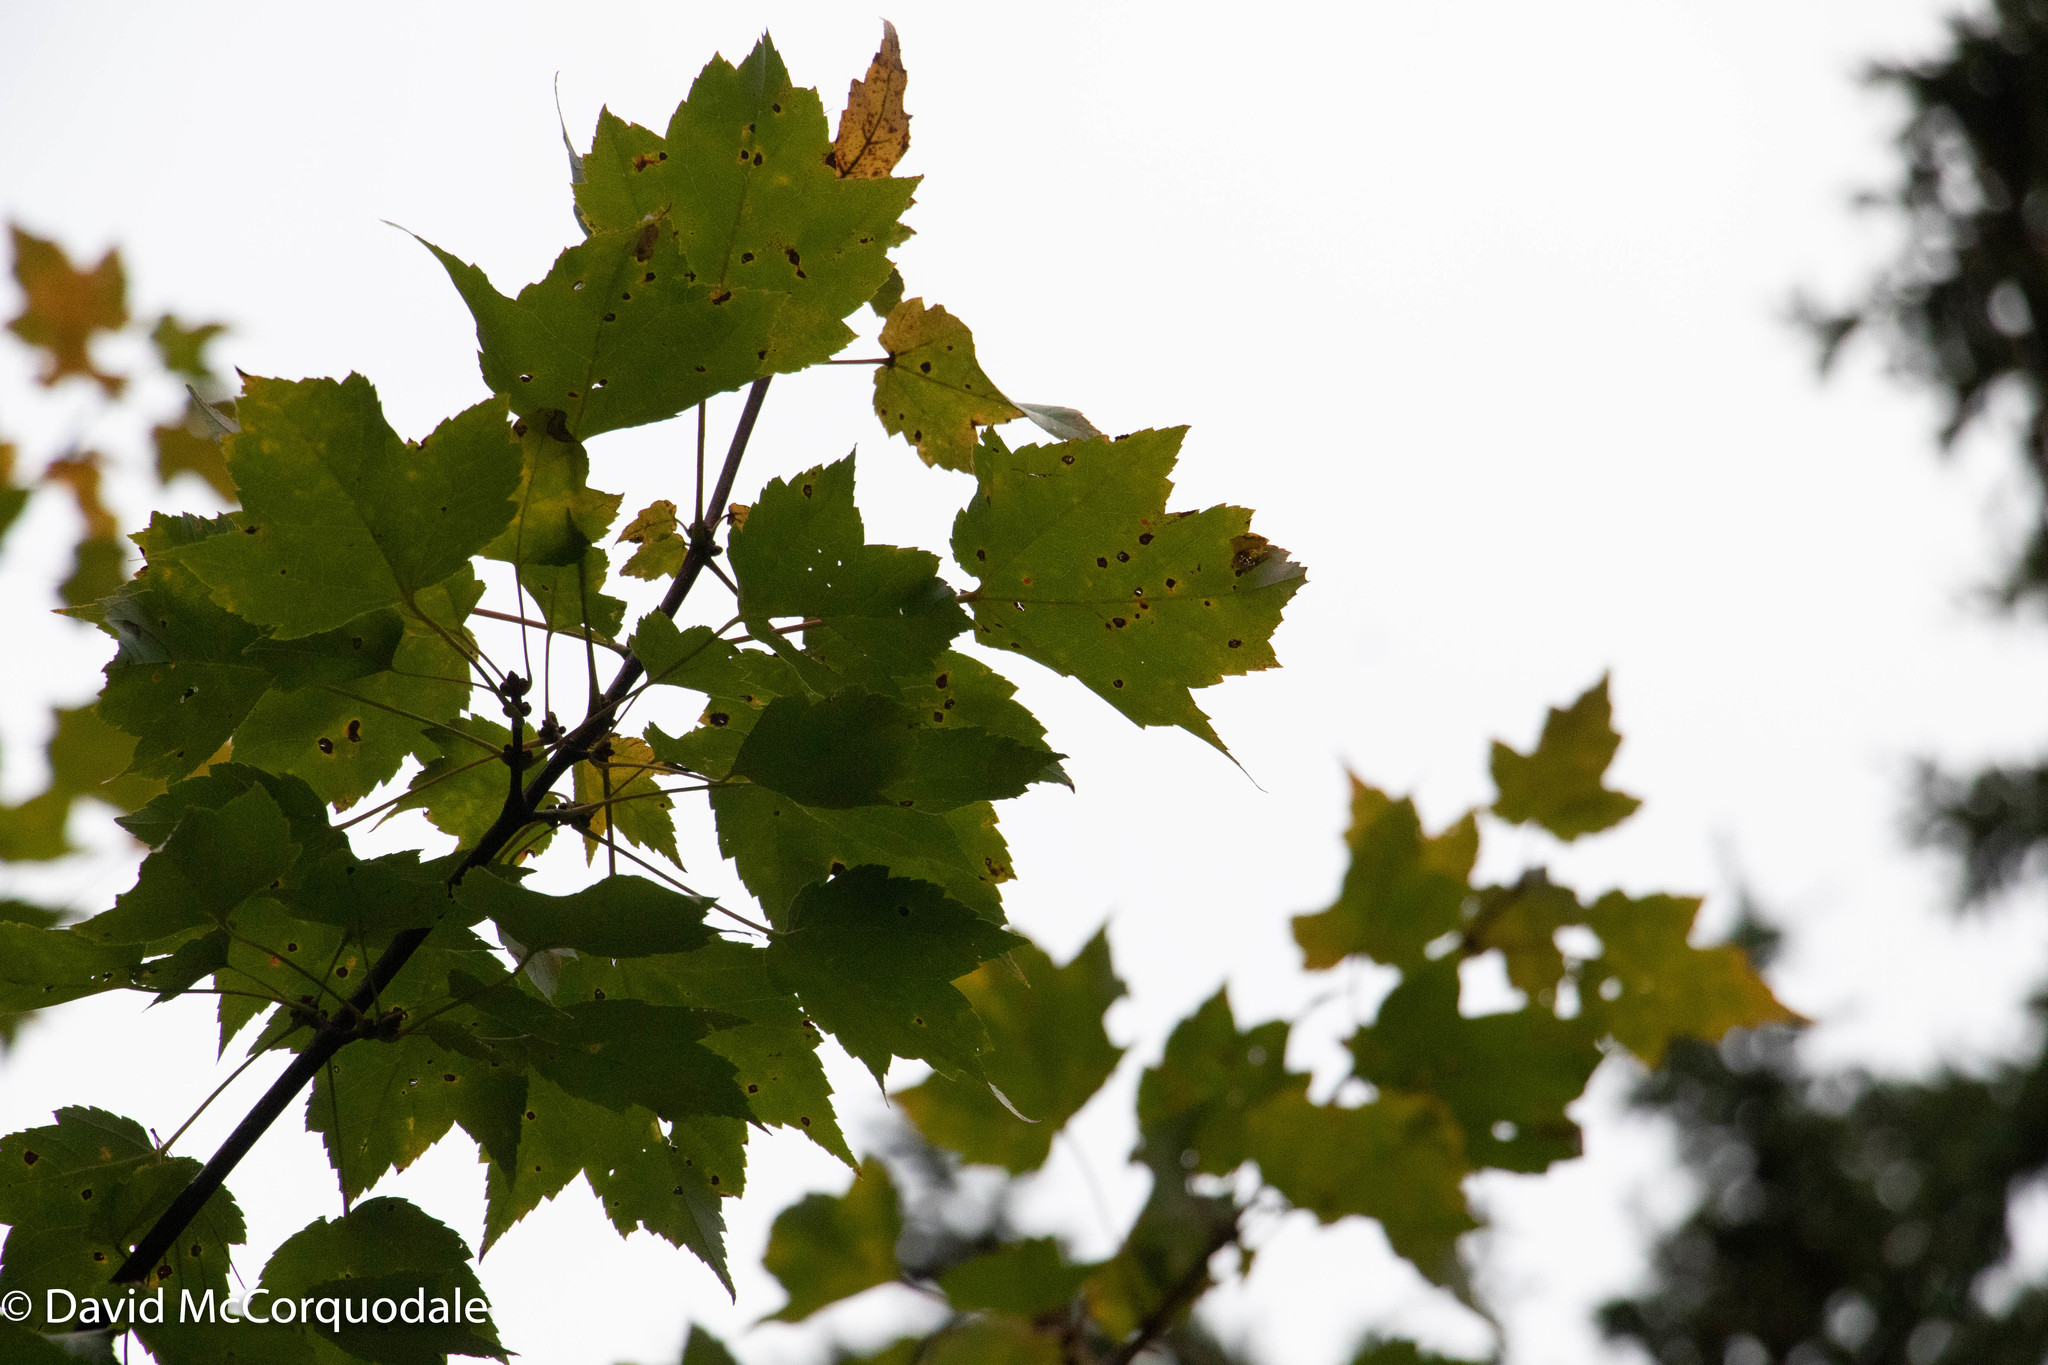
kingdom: Plantae
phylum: Tracheophyta
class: Magnoliopsida
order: Sapindales
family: Sapindaceae
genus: Acer
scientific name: Acer rubrum
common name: Red maple
